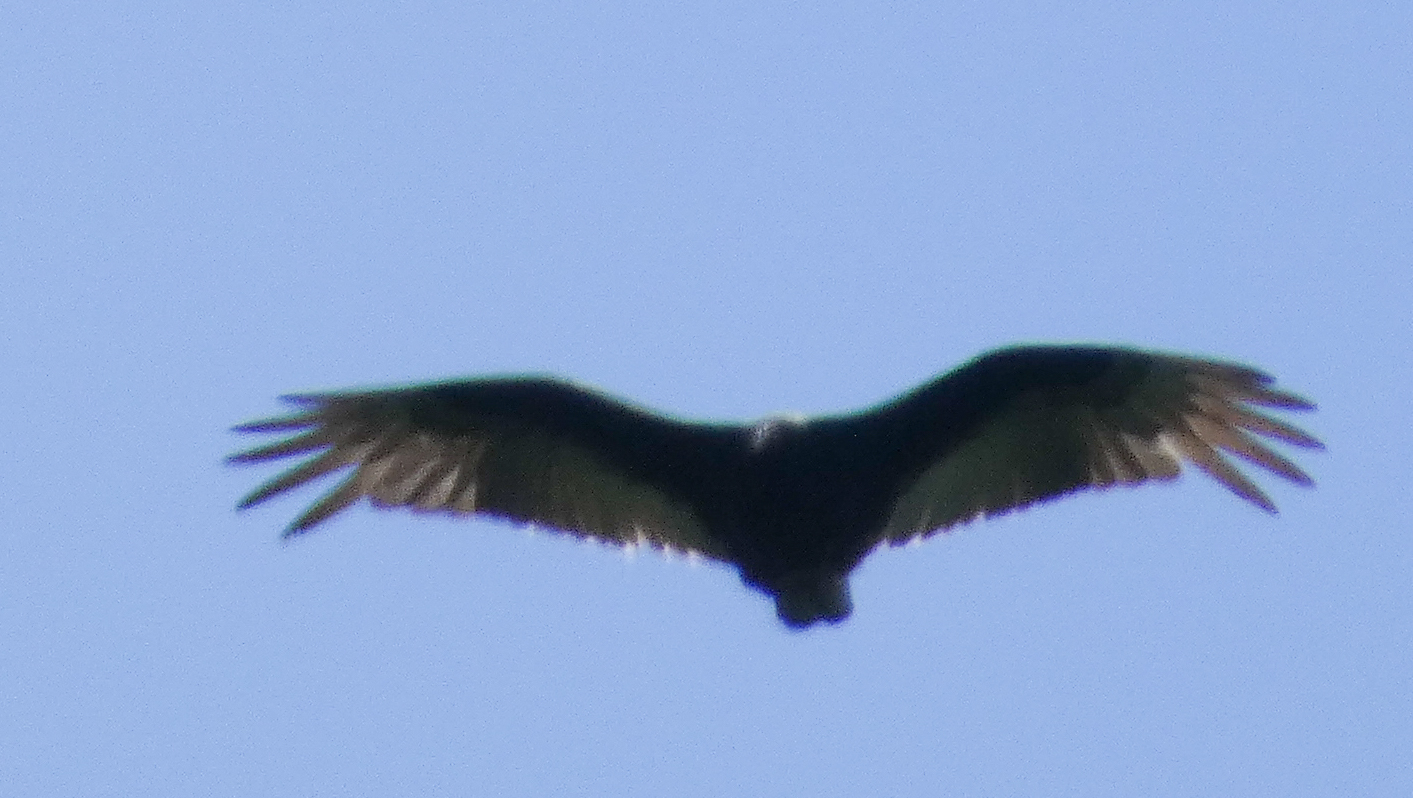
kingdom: Animalia
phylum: Chordata
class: Aves
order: Accipitriformes
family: Cathartidae
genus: Cathartes
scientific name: Cathartes aura
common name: Turkey vulture
